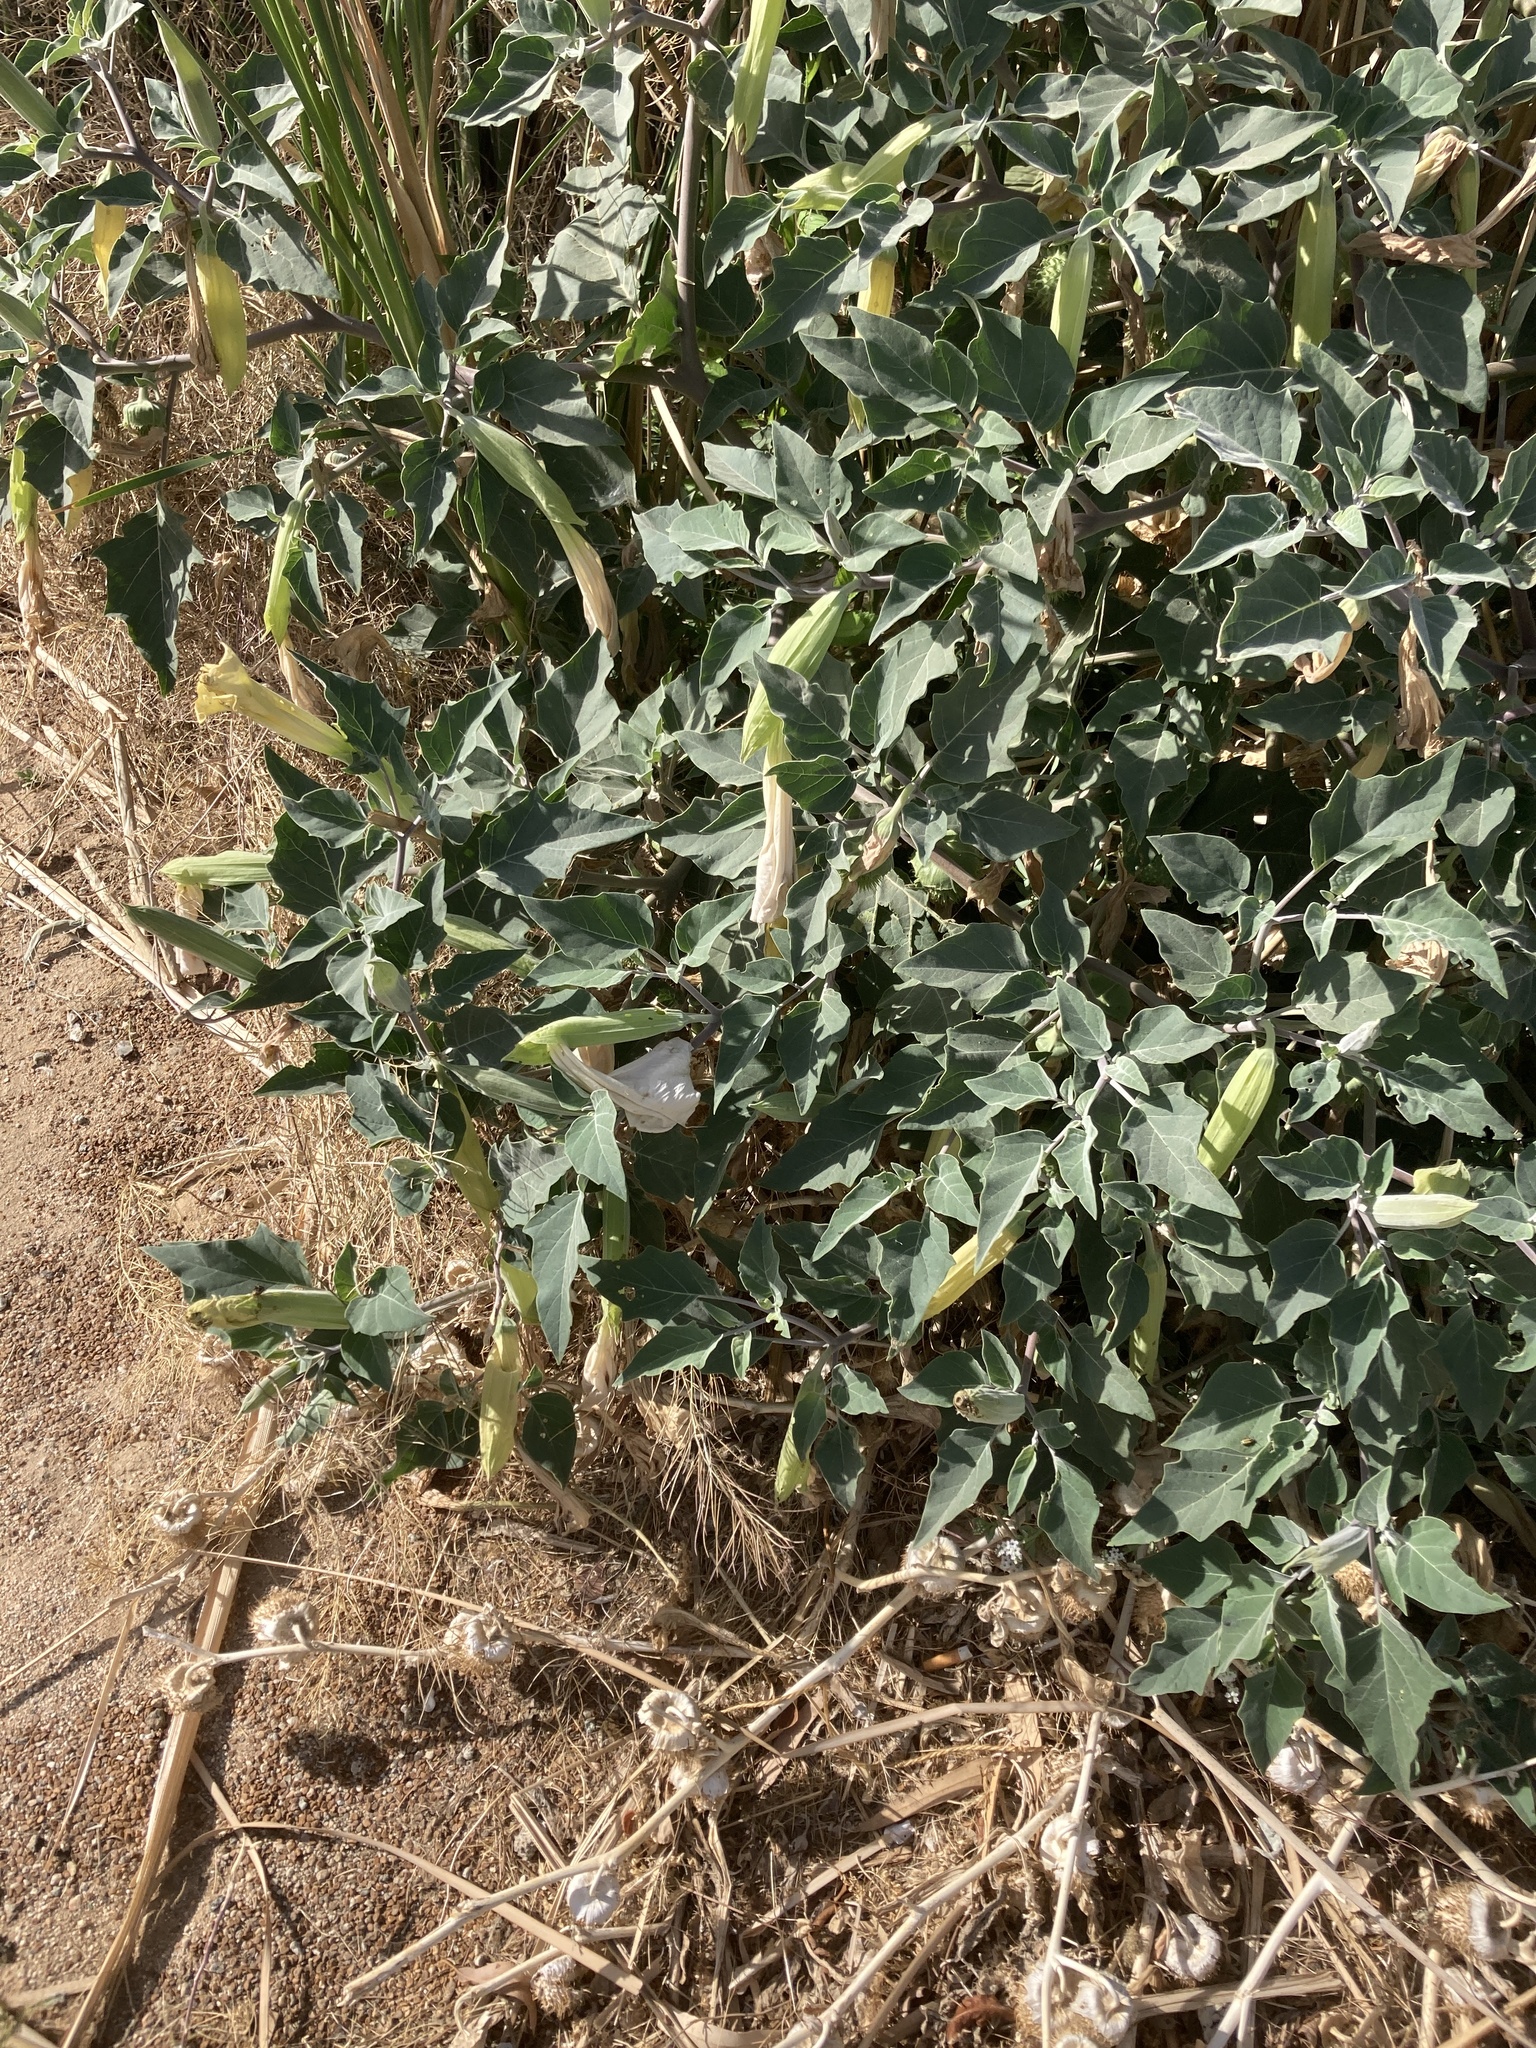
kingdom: Plantae
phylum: Tracheophyta
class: Magnoliopsida
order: Solanales
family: Solanaceae
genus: Datura
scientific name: Datura wrightii
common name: Sacred thorn-apple
